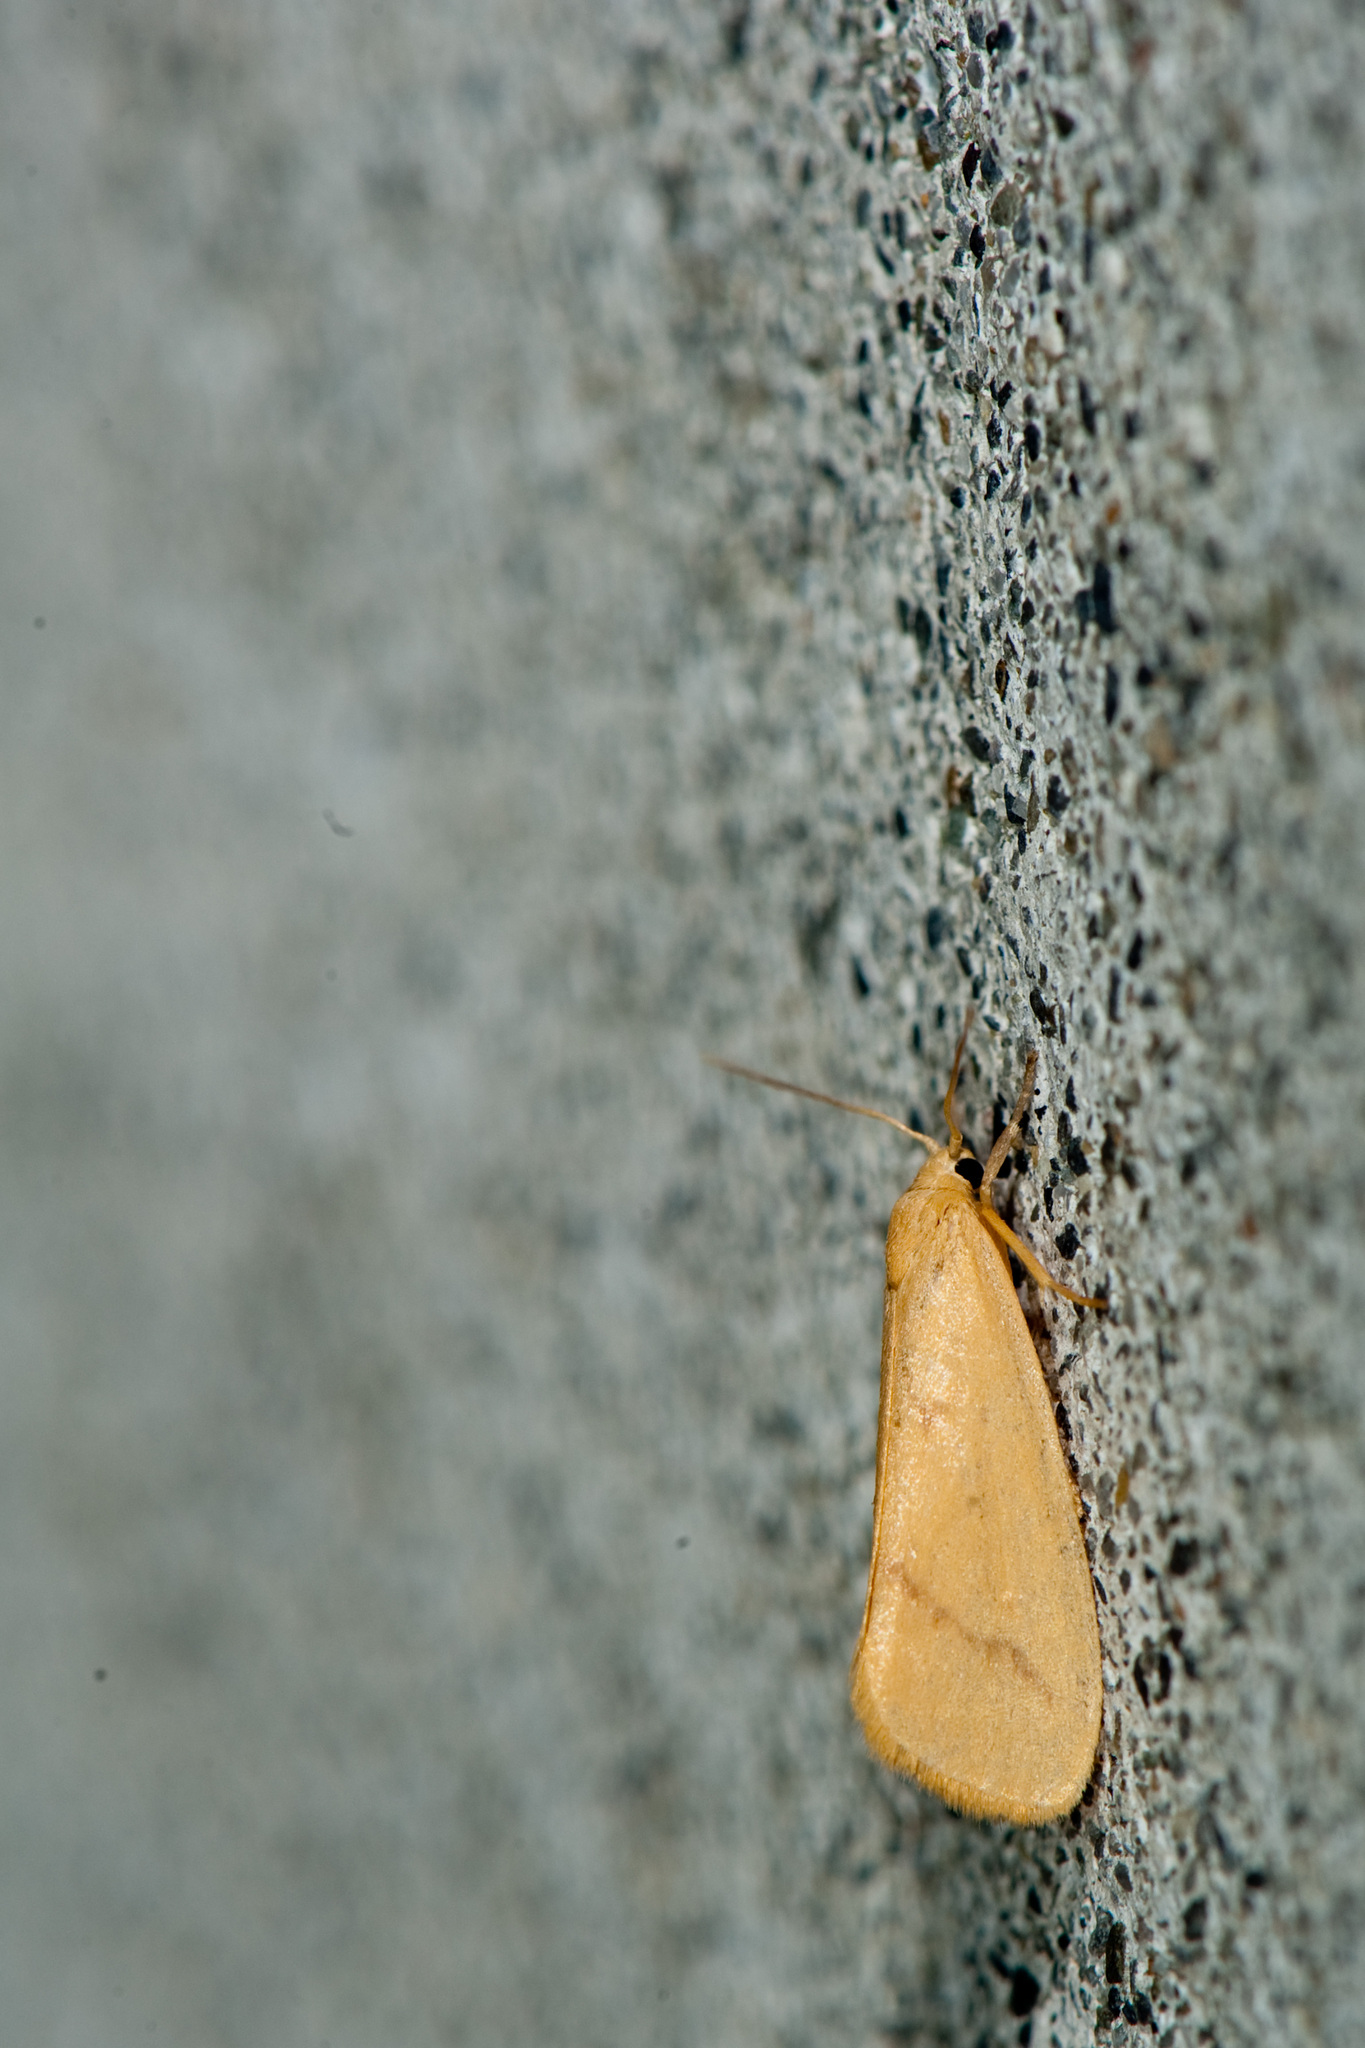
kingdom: Animalia
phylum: Arthropoda
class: Insecta
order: Lepidoptera
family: Erebidae
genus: Notata
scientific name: Notata parva
